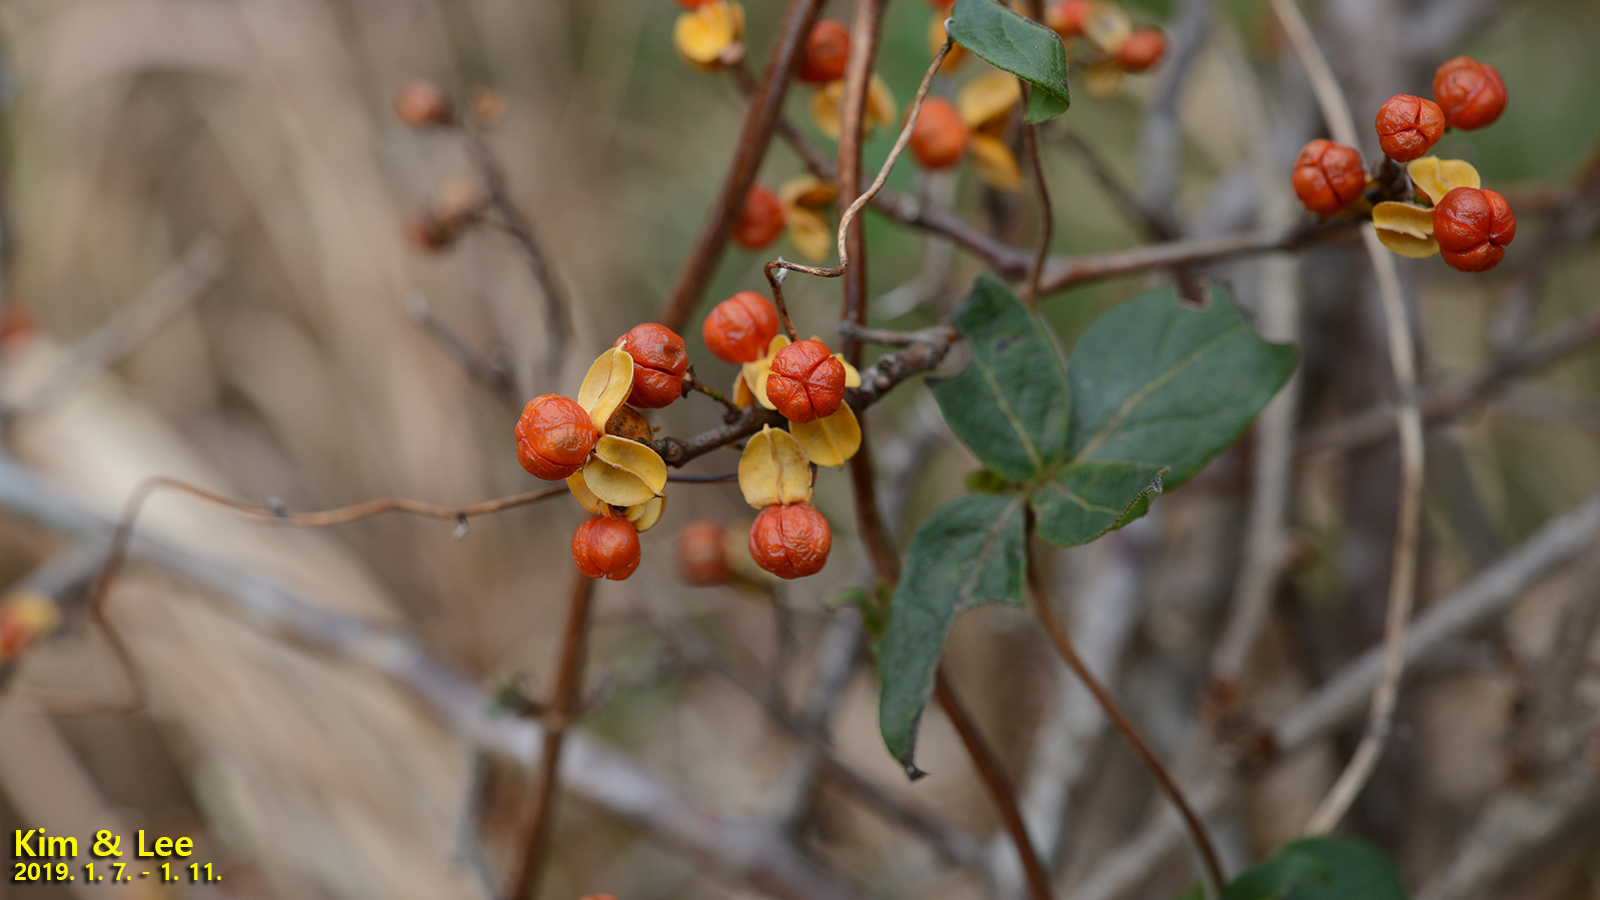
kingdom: Plantae
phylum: Tracheophyta
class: Magnoliopsida
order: Celastrales
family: Celastraceae
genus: Celastrus
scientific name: Celastrus orbiculatus
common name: Oriental bittersweet
